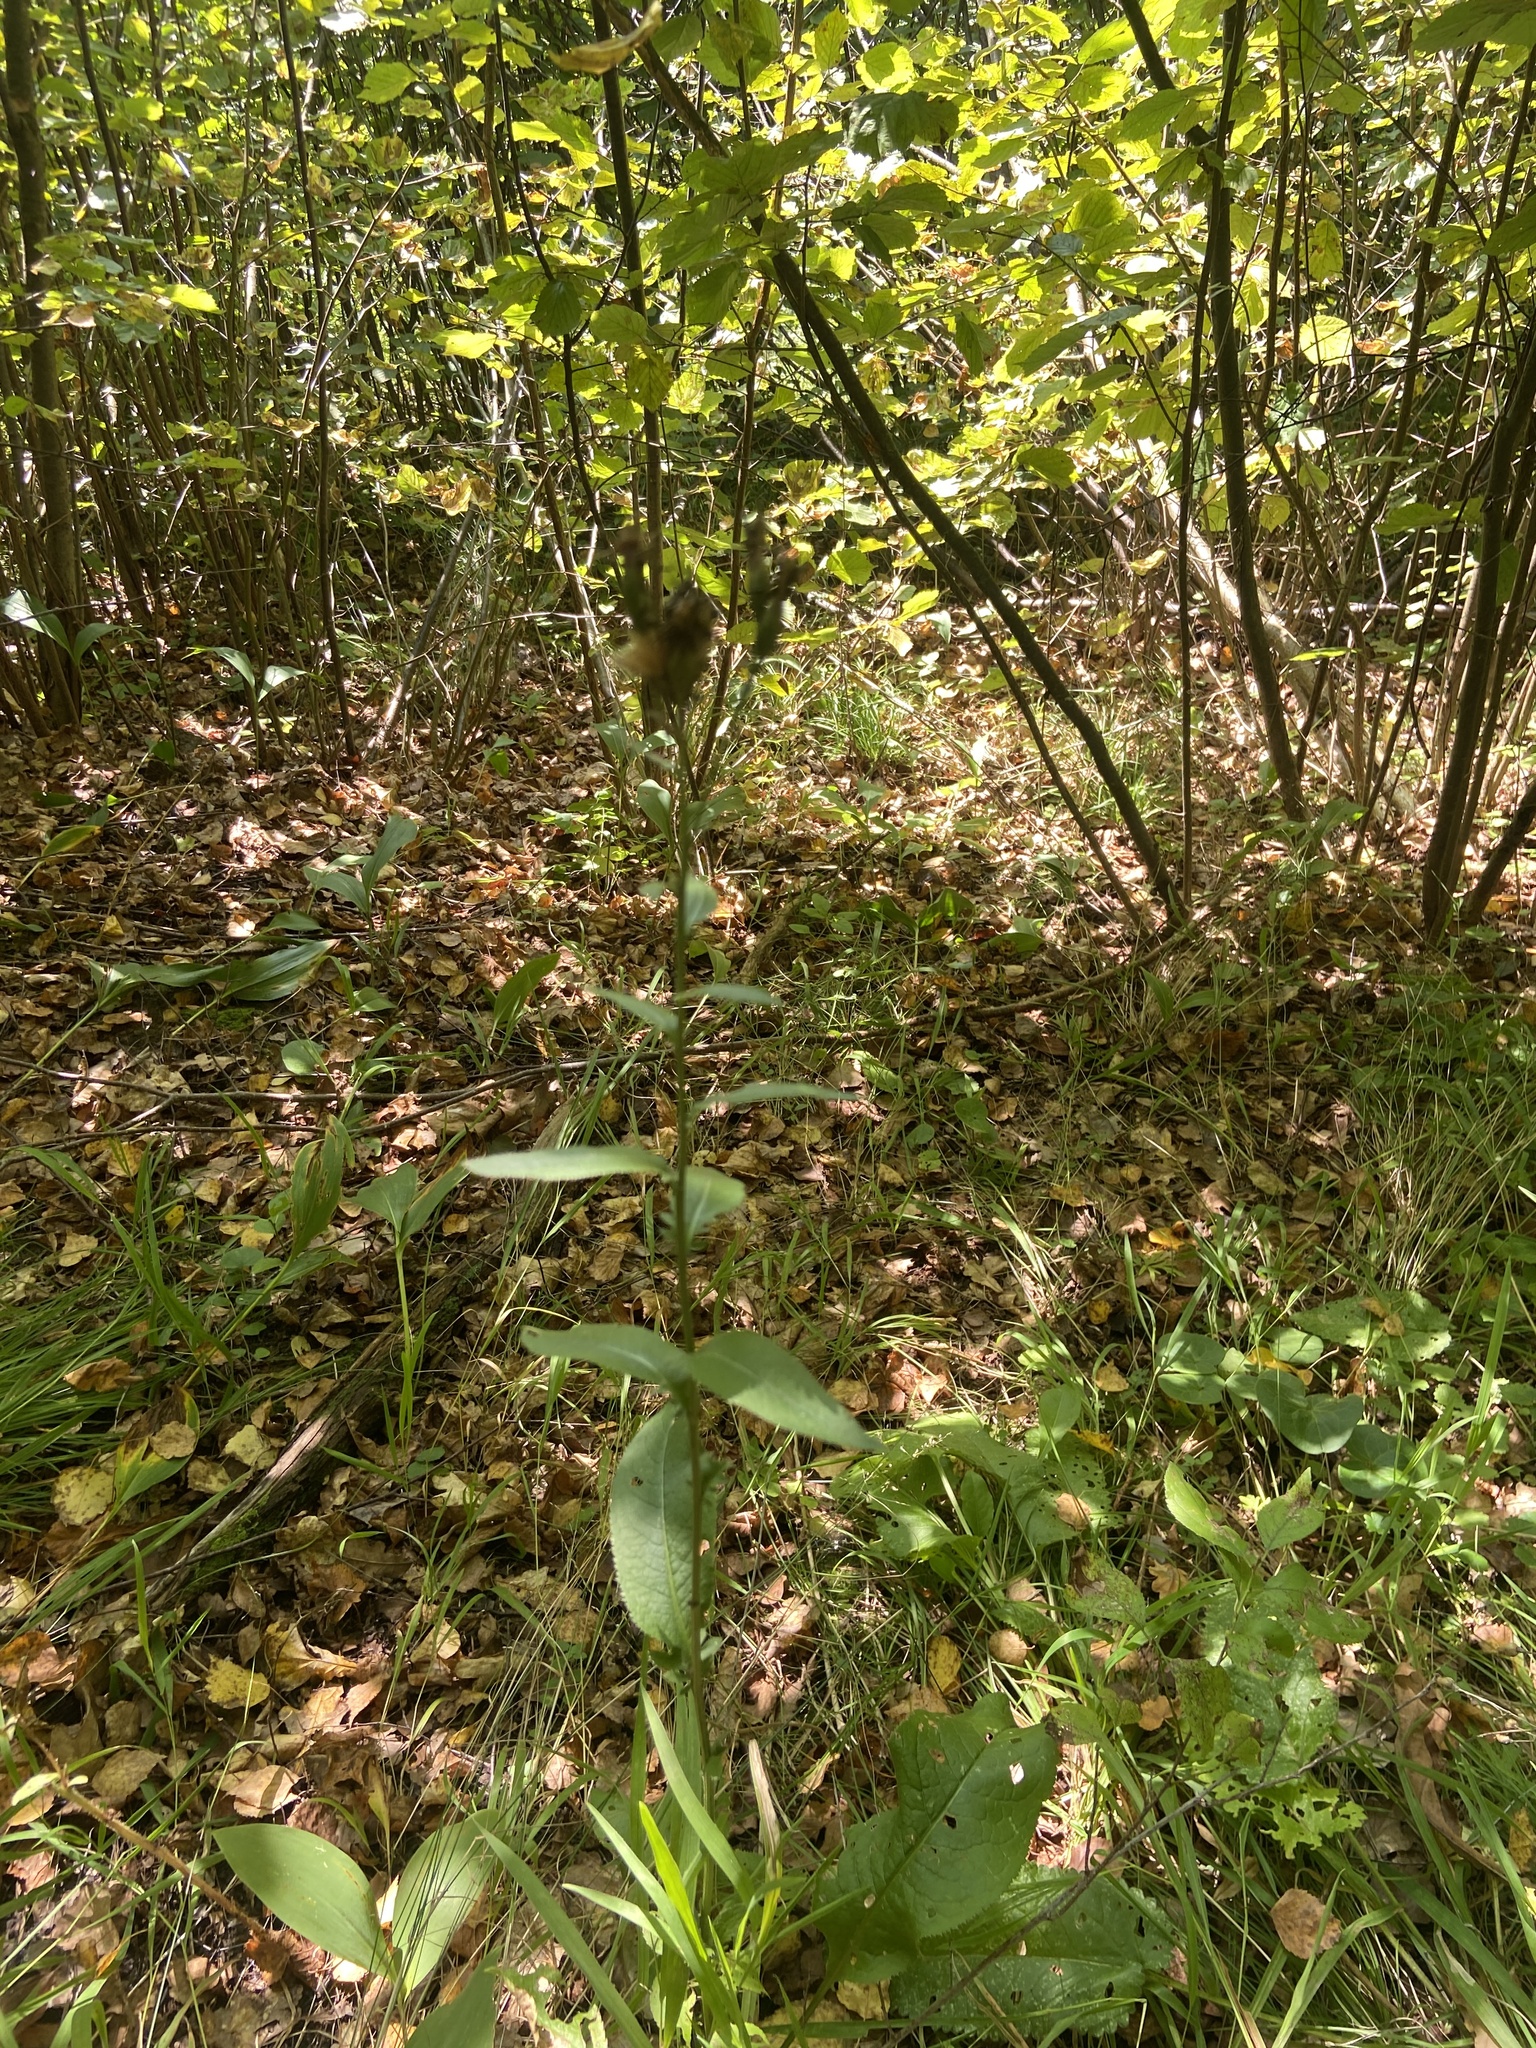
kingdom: Plantae
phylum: Tracheophyta
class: Magnoliopsida
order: Asterales
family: Asteraceae
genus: Serratula
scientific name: Serratula tinctoria
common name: Saw-wort
